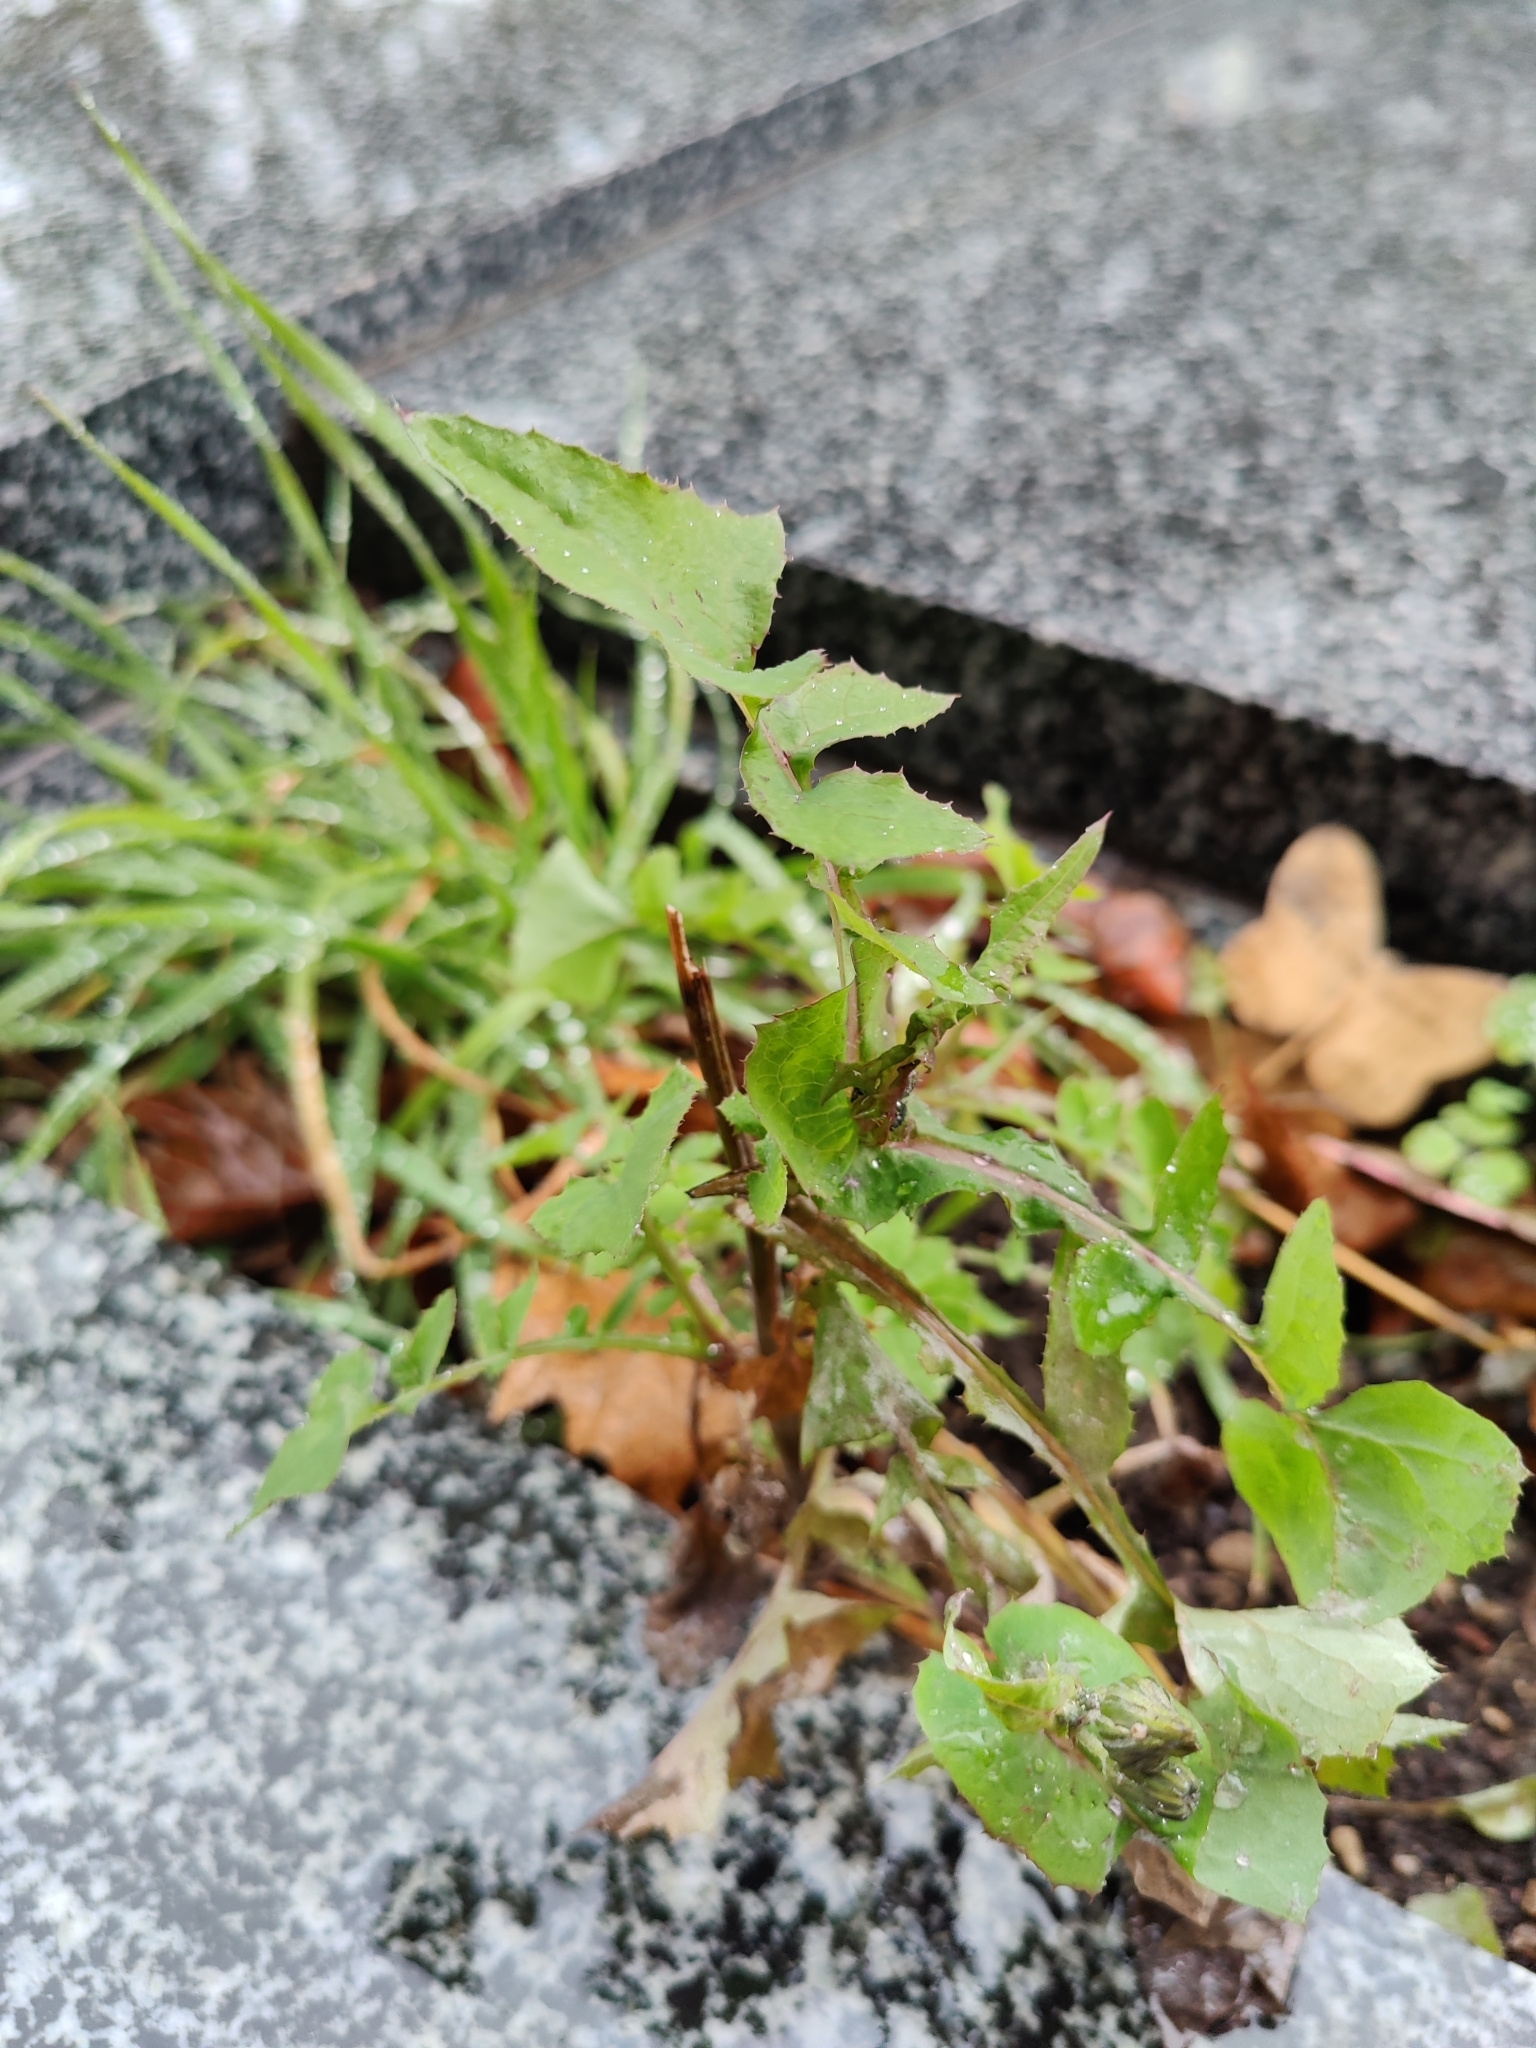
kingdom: Plantae
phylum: Tracheophyta
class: Magnoliopsida
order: Asterales
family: Asteraceae
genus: Sonchus
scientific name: Sonchus oleraceus
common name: Common sowthistle
